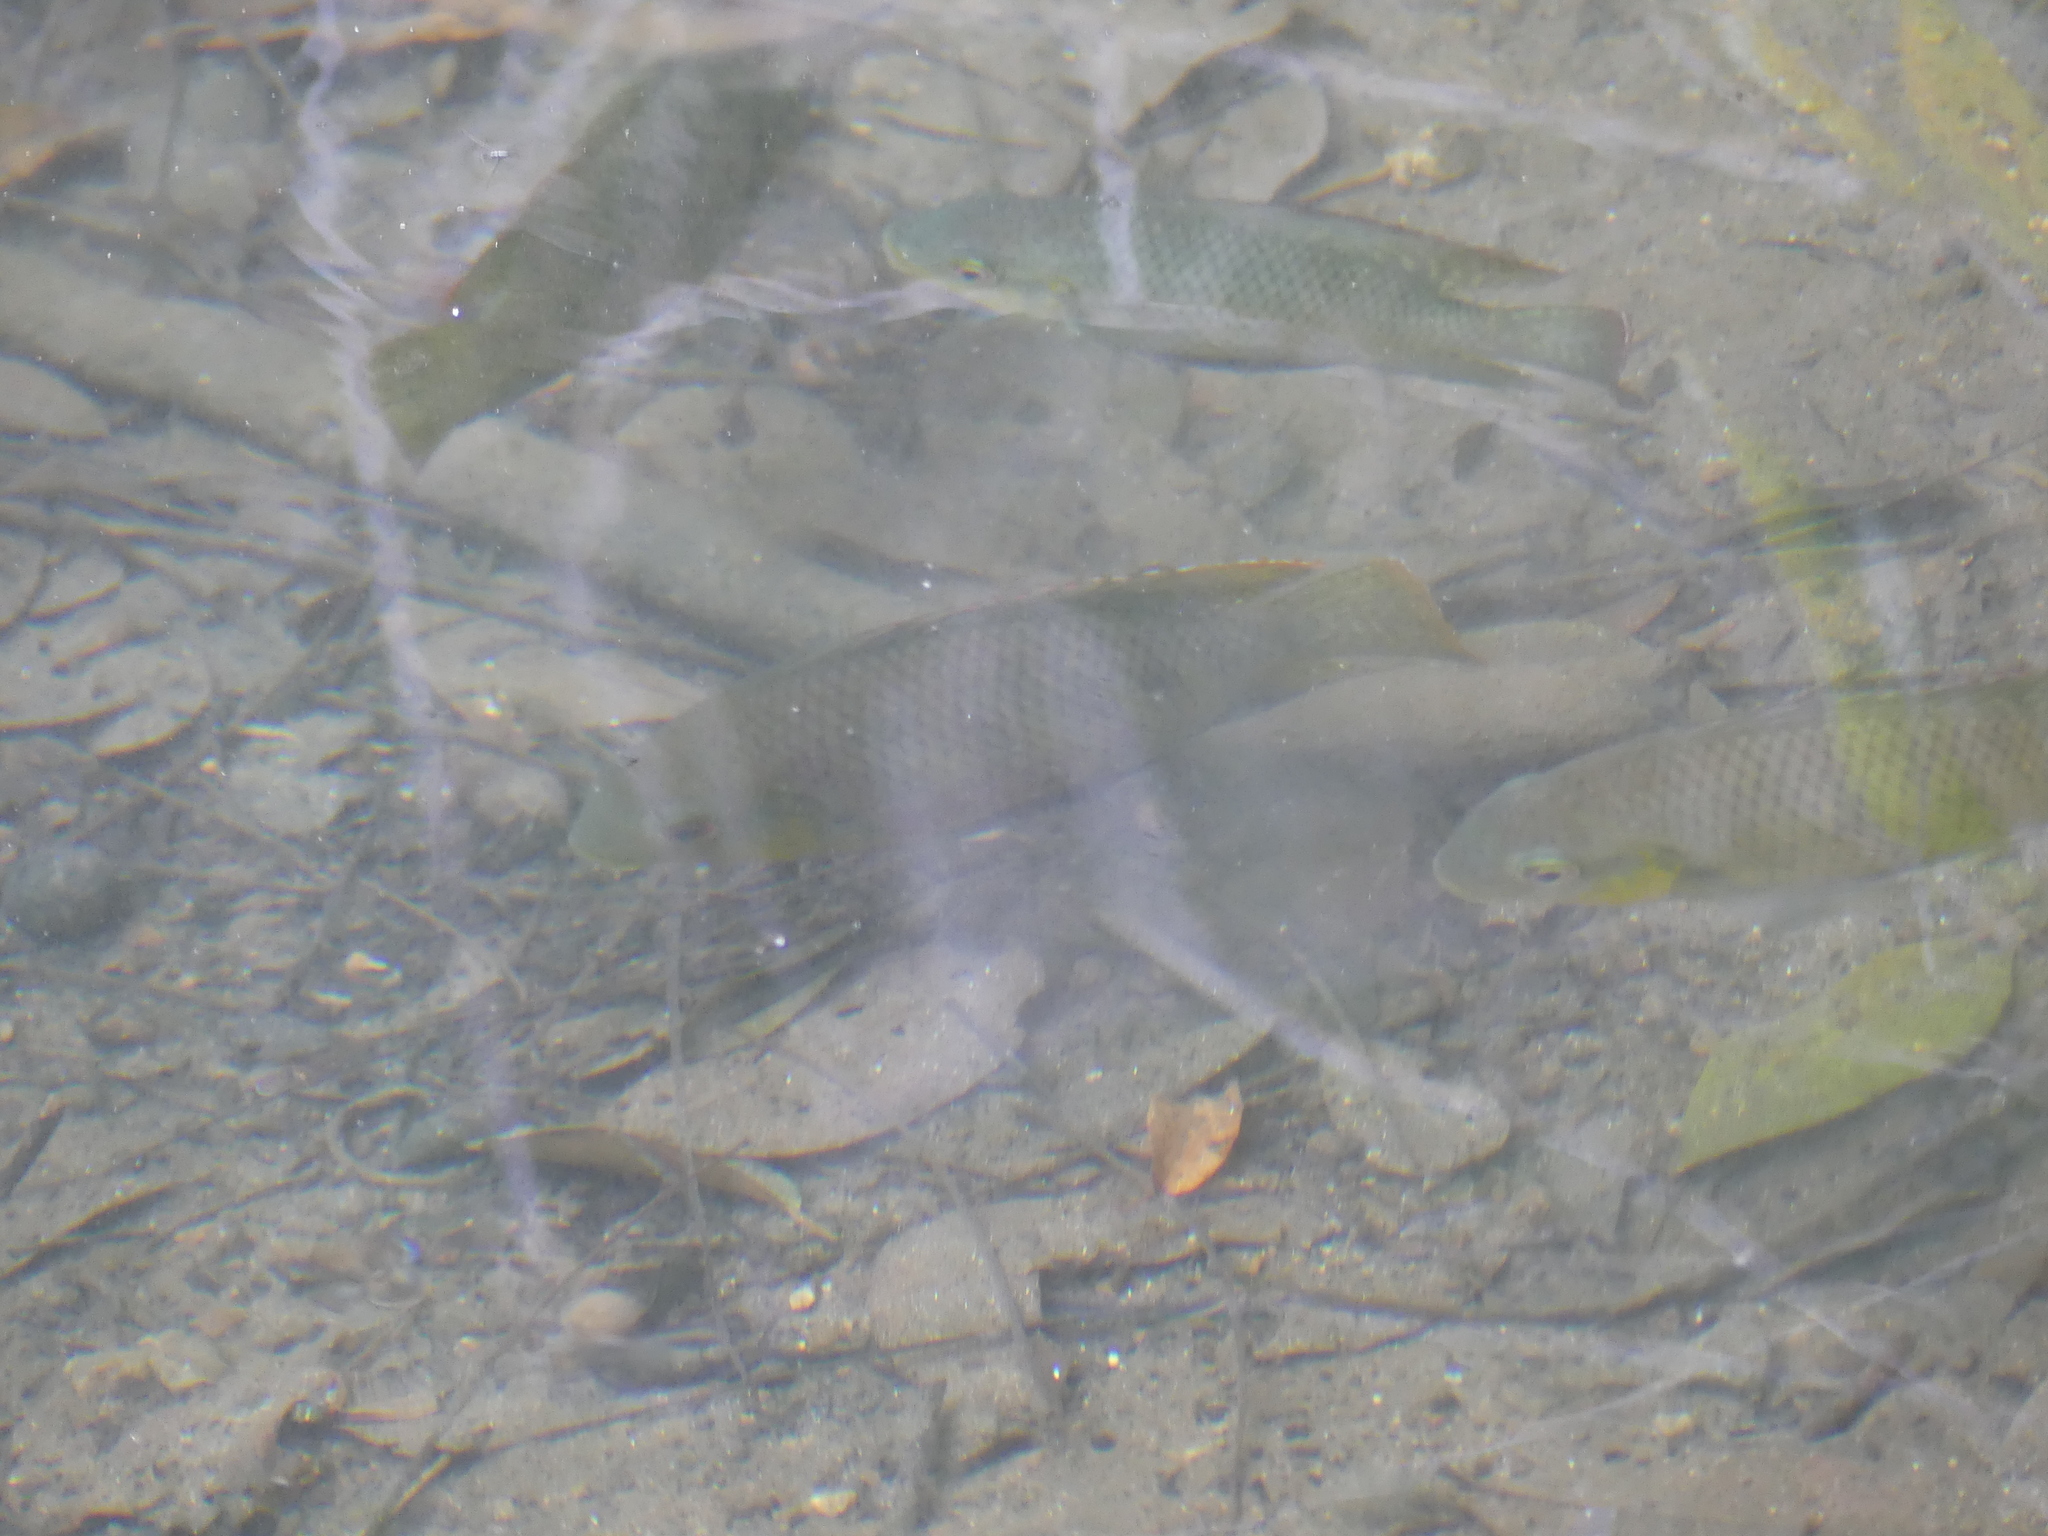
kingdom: Animalia
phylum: Chordata
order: Perciformes
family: Cichlidae
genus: Pelmatolapia
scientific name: Pelmatolapia mariae
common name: Spotted tilapia
